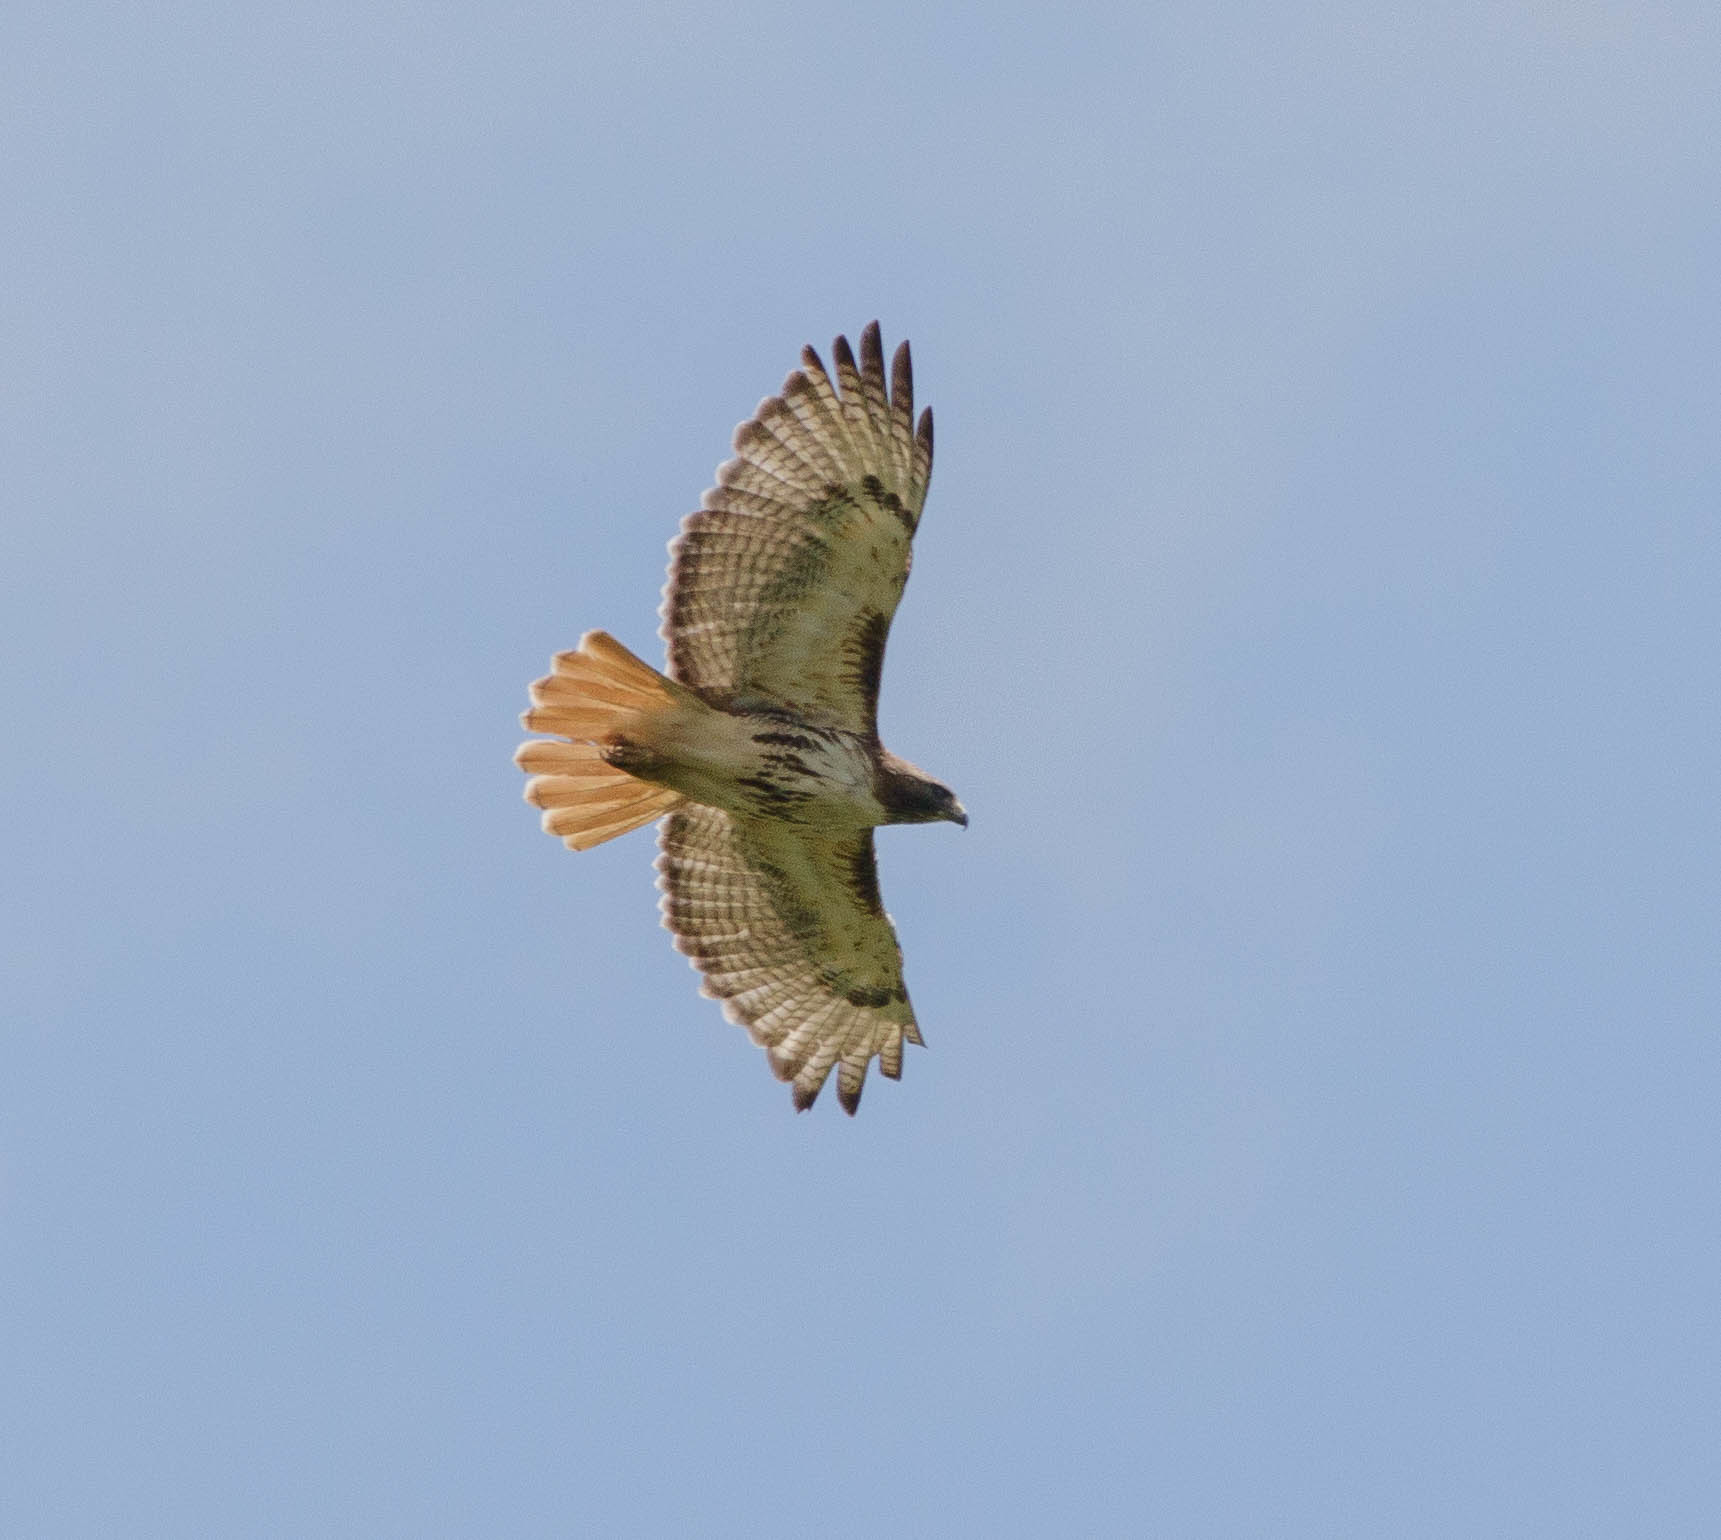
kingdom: Animalia
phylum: Chordata
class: Aves
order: Accipitriformes
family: Accipitridae
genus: Buteo
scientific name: Buteo jamaicensis
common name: Red-tailed hawk
